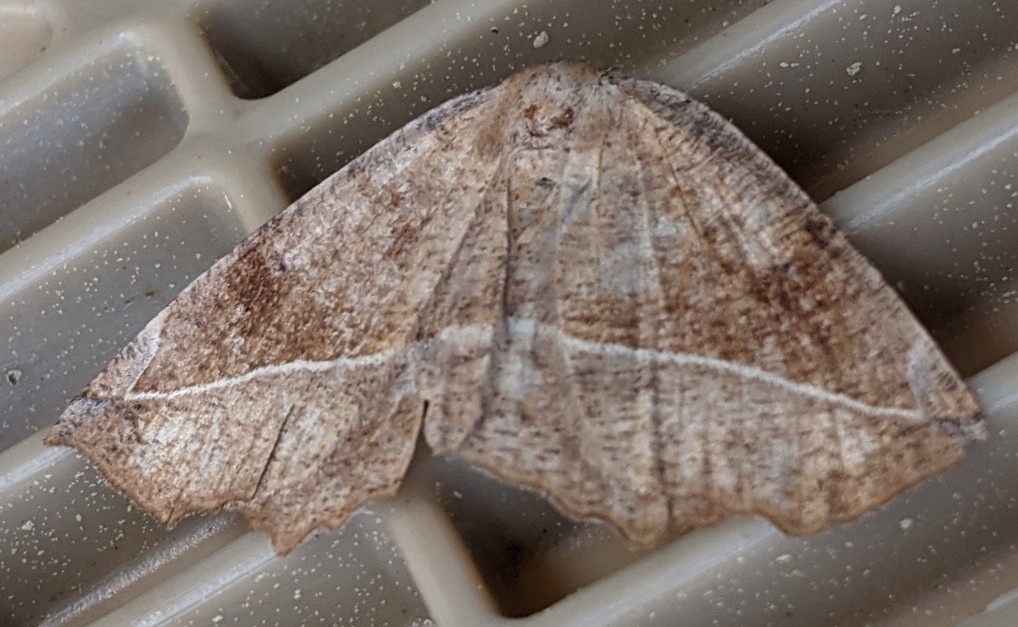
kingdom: Animalia
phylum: Arthropoda
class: Insecta
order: Lepidoptera
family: Geometridae
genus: Eutrapela
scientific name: Eutrapela clemataria
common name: Curved-toothed geometer
